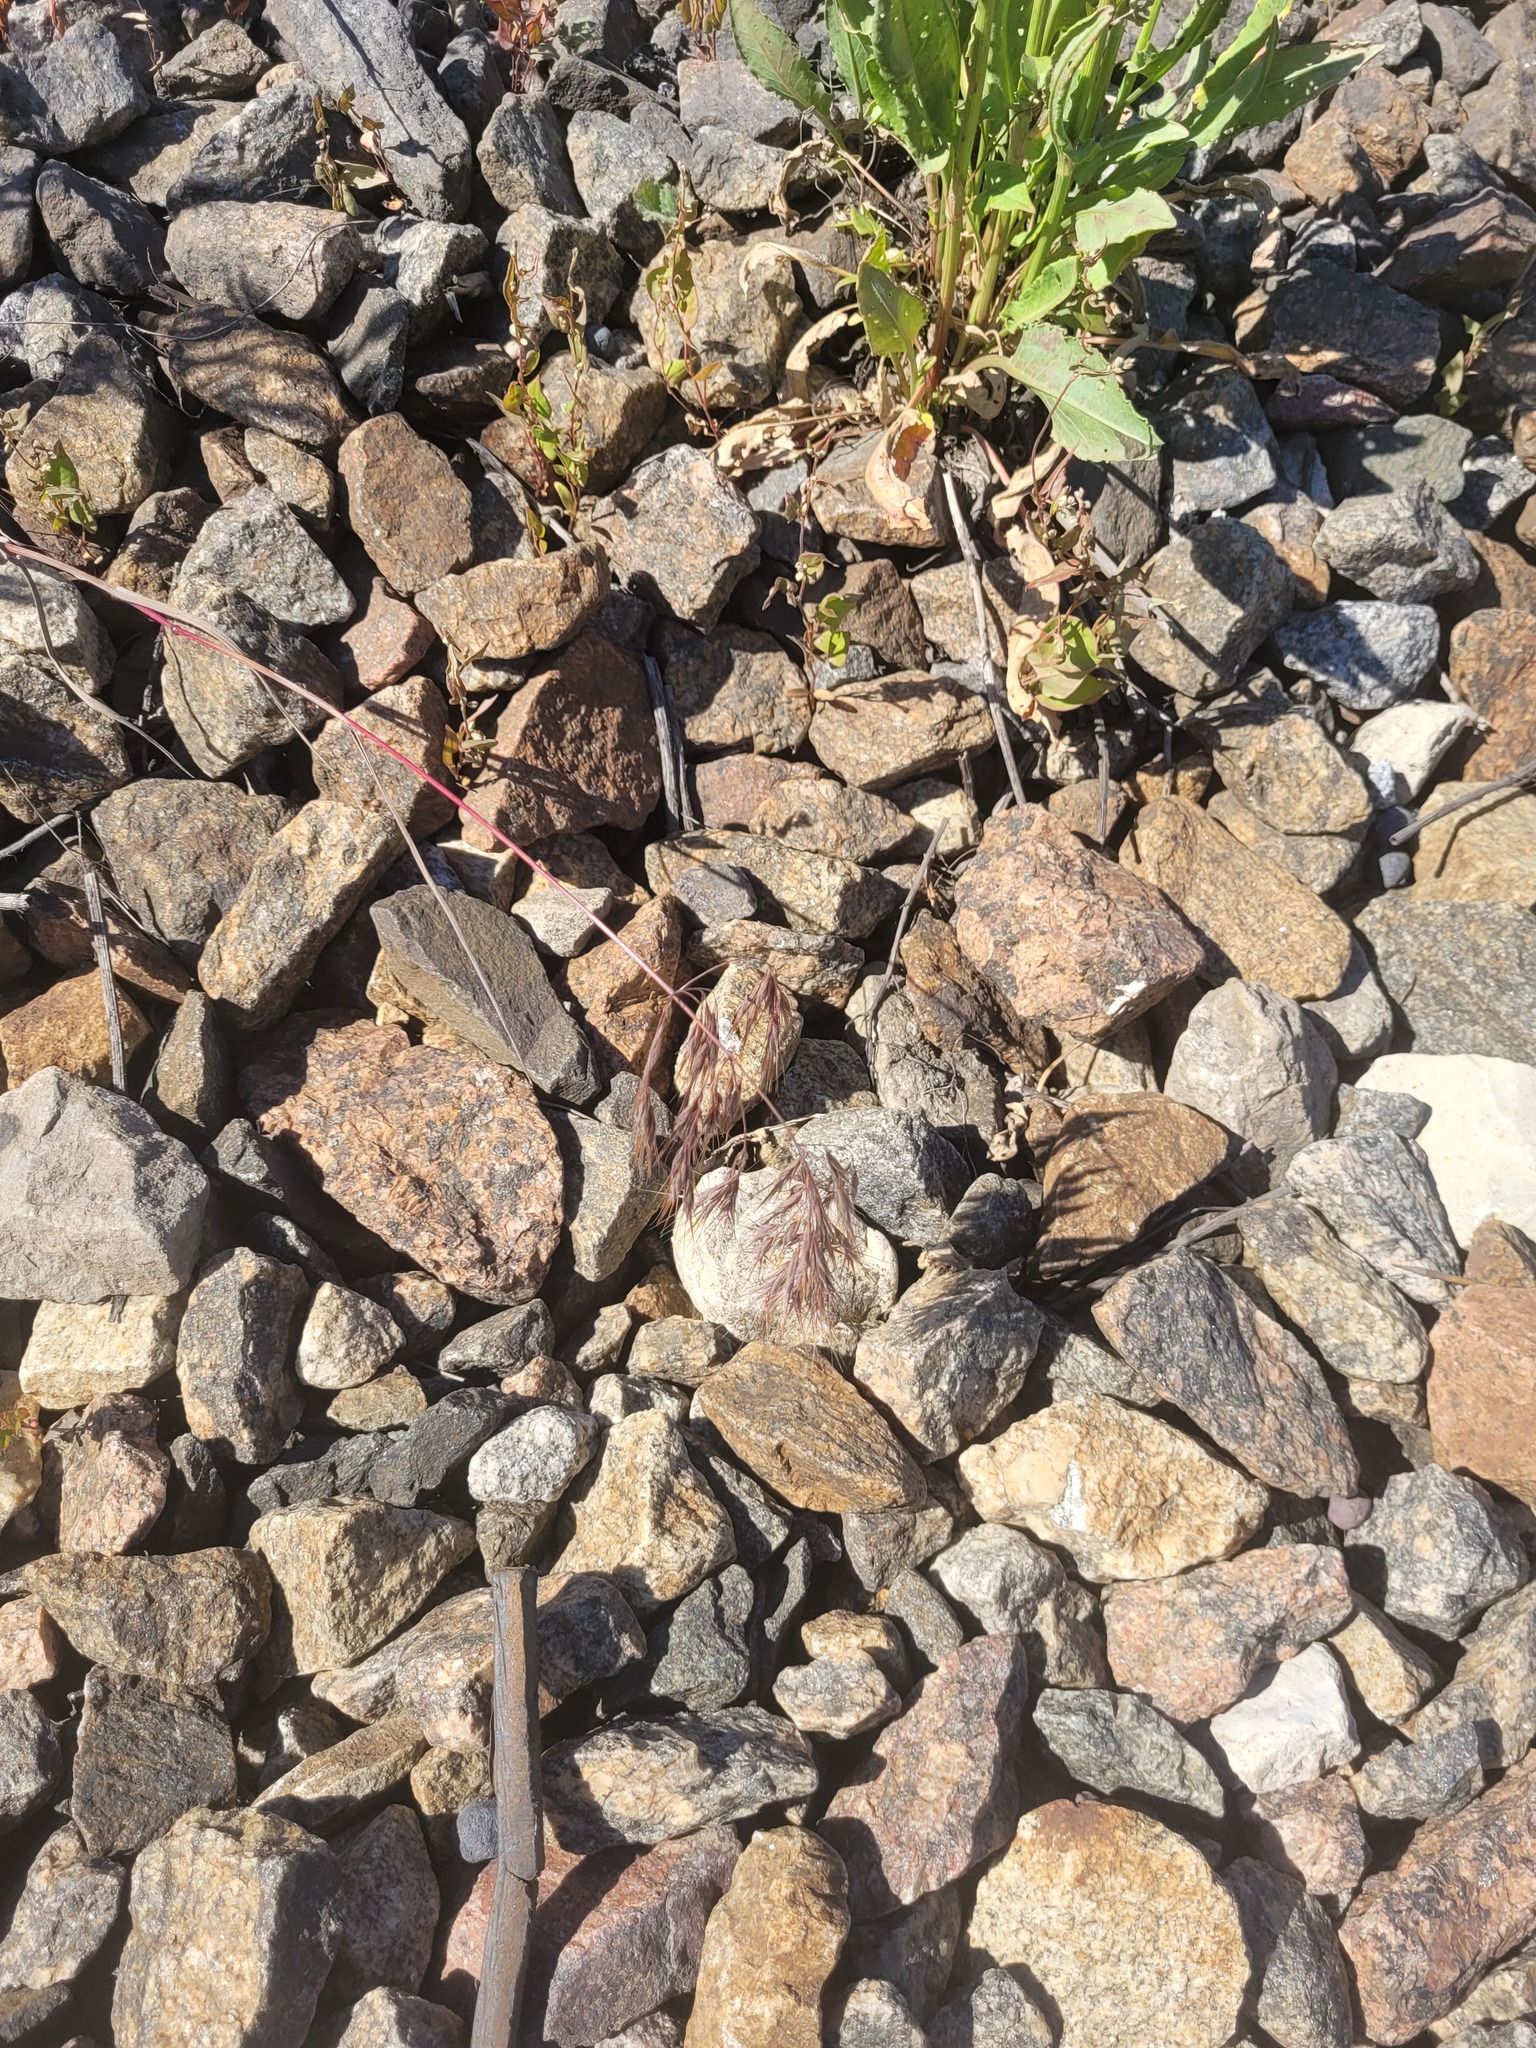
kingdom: Plantae
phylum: Tracheophyta
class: Liliopsida
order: Poales
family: Poaceae
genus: Bromus
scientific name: Bromus tectorum
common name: Cheatgrass
